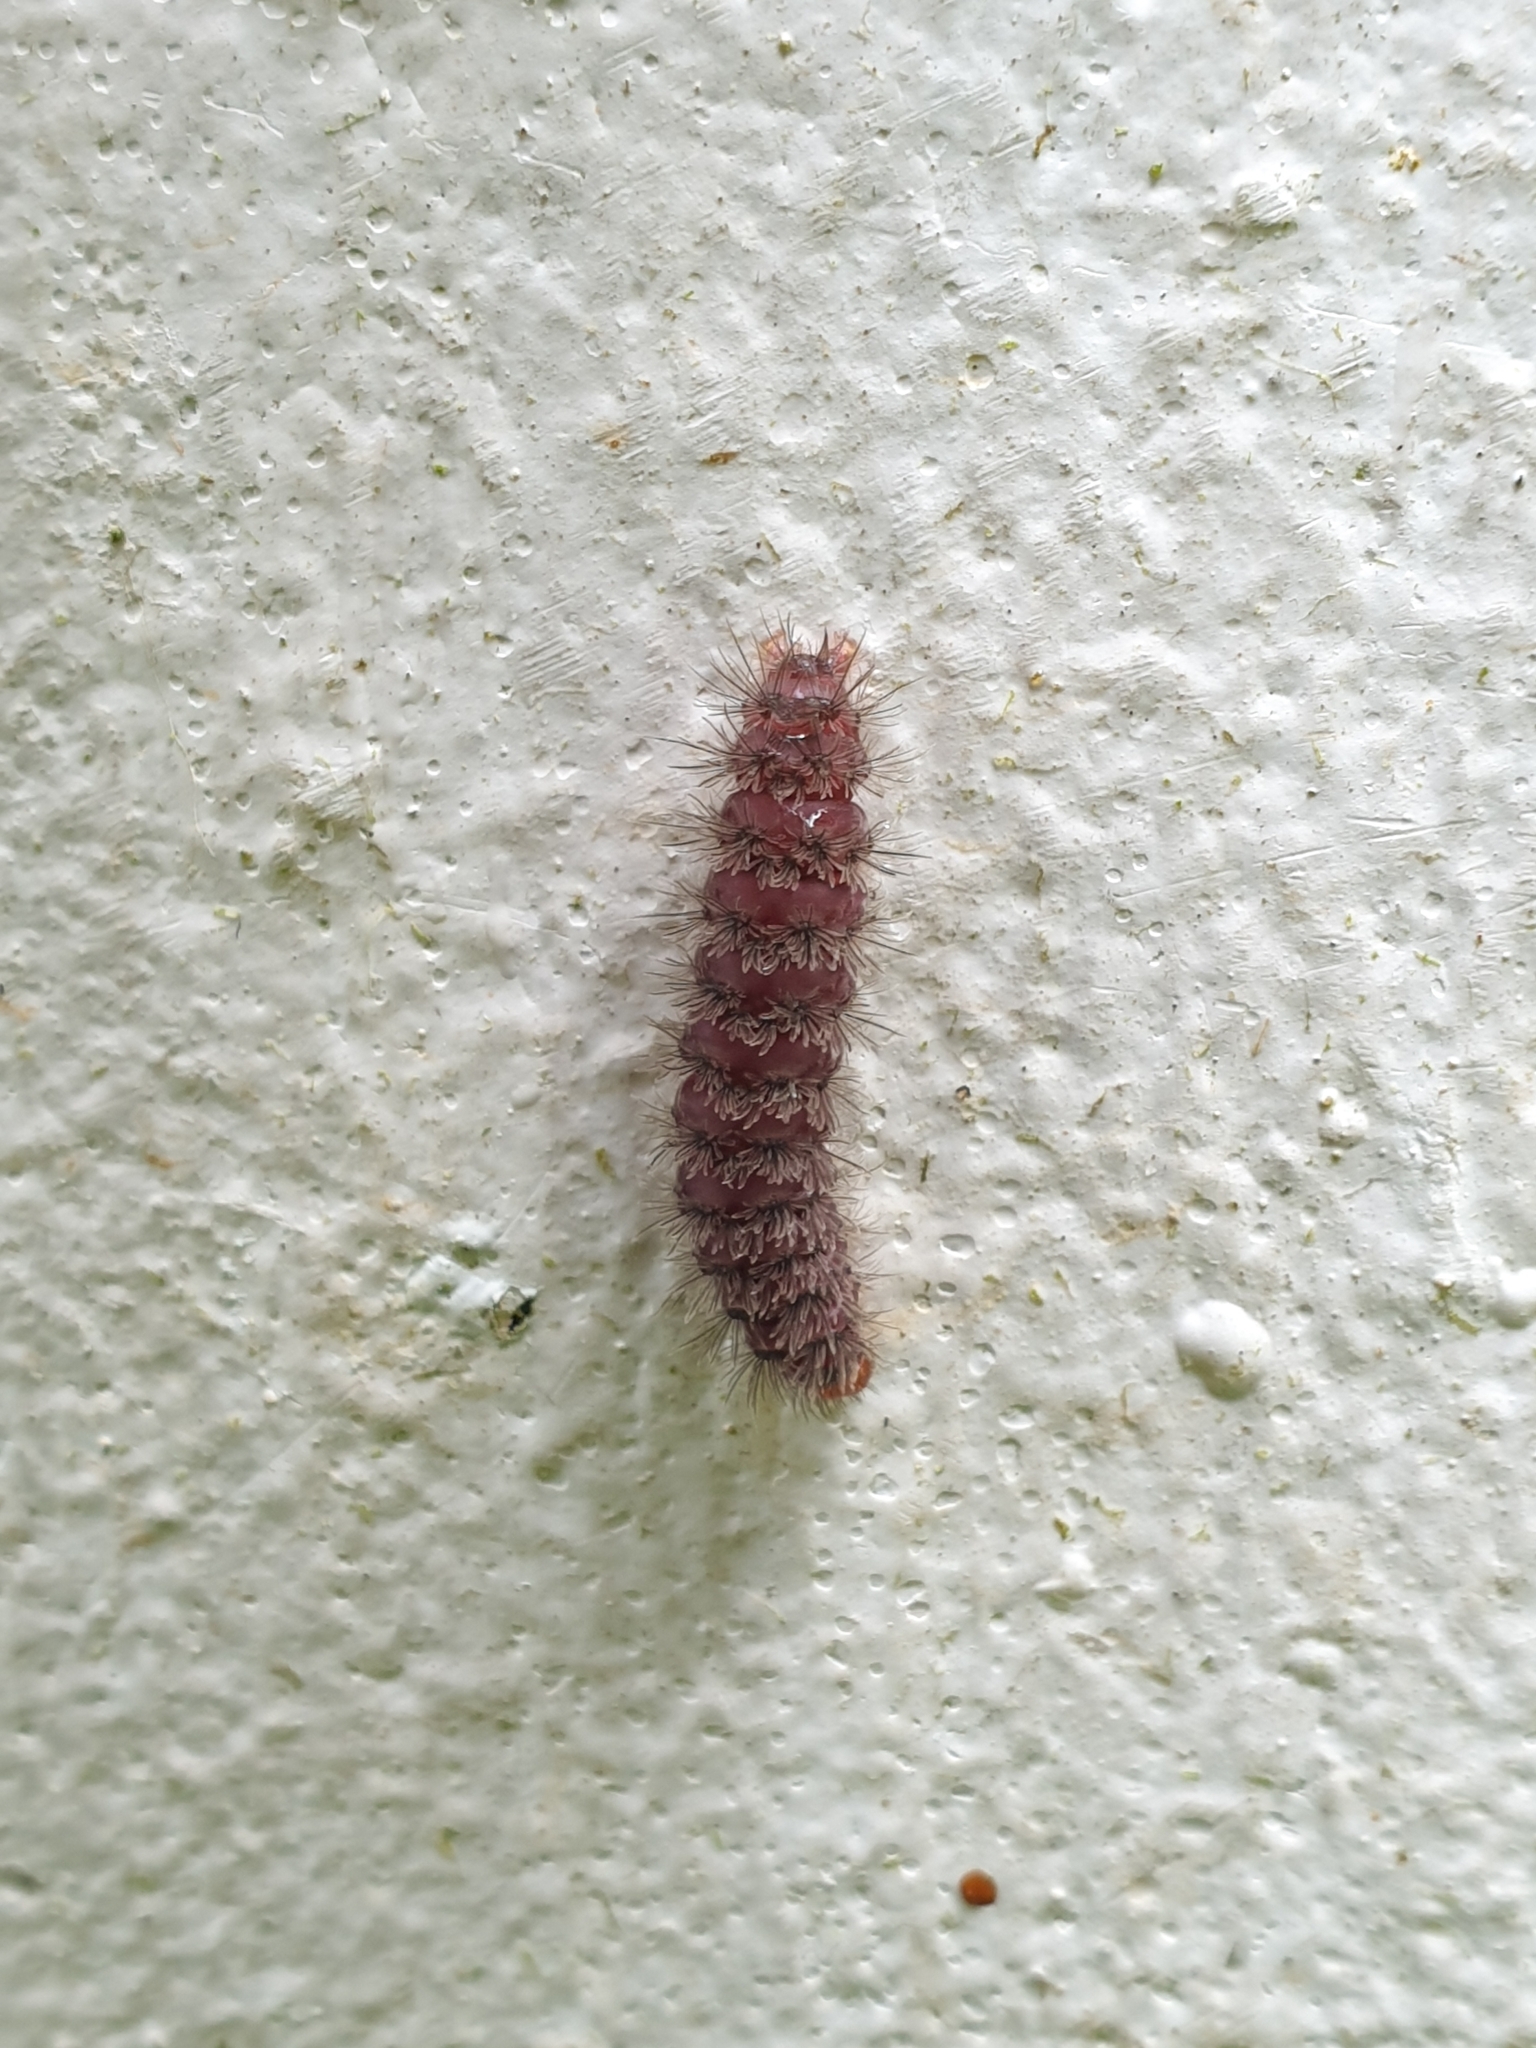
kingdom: Animalia
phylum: Arthropoda
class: Insecta
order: Lepidoptera
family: Erebidae
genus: Amata
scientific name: Amata passalis
